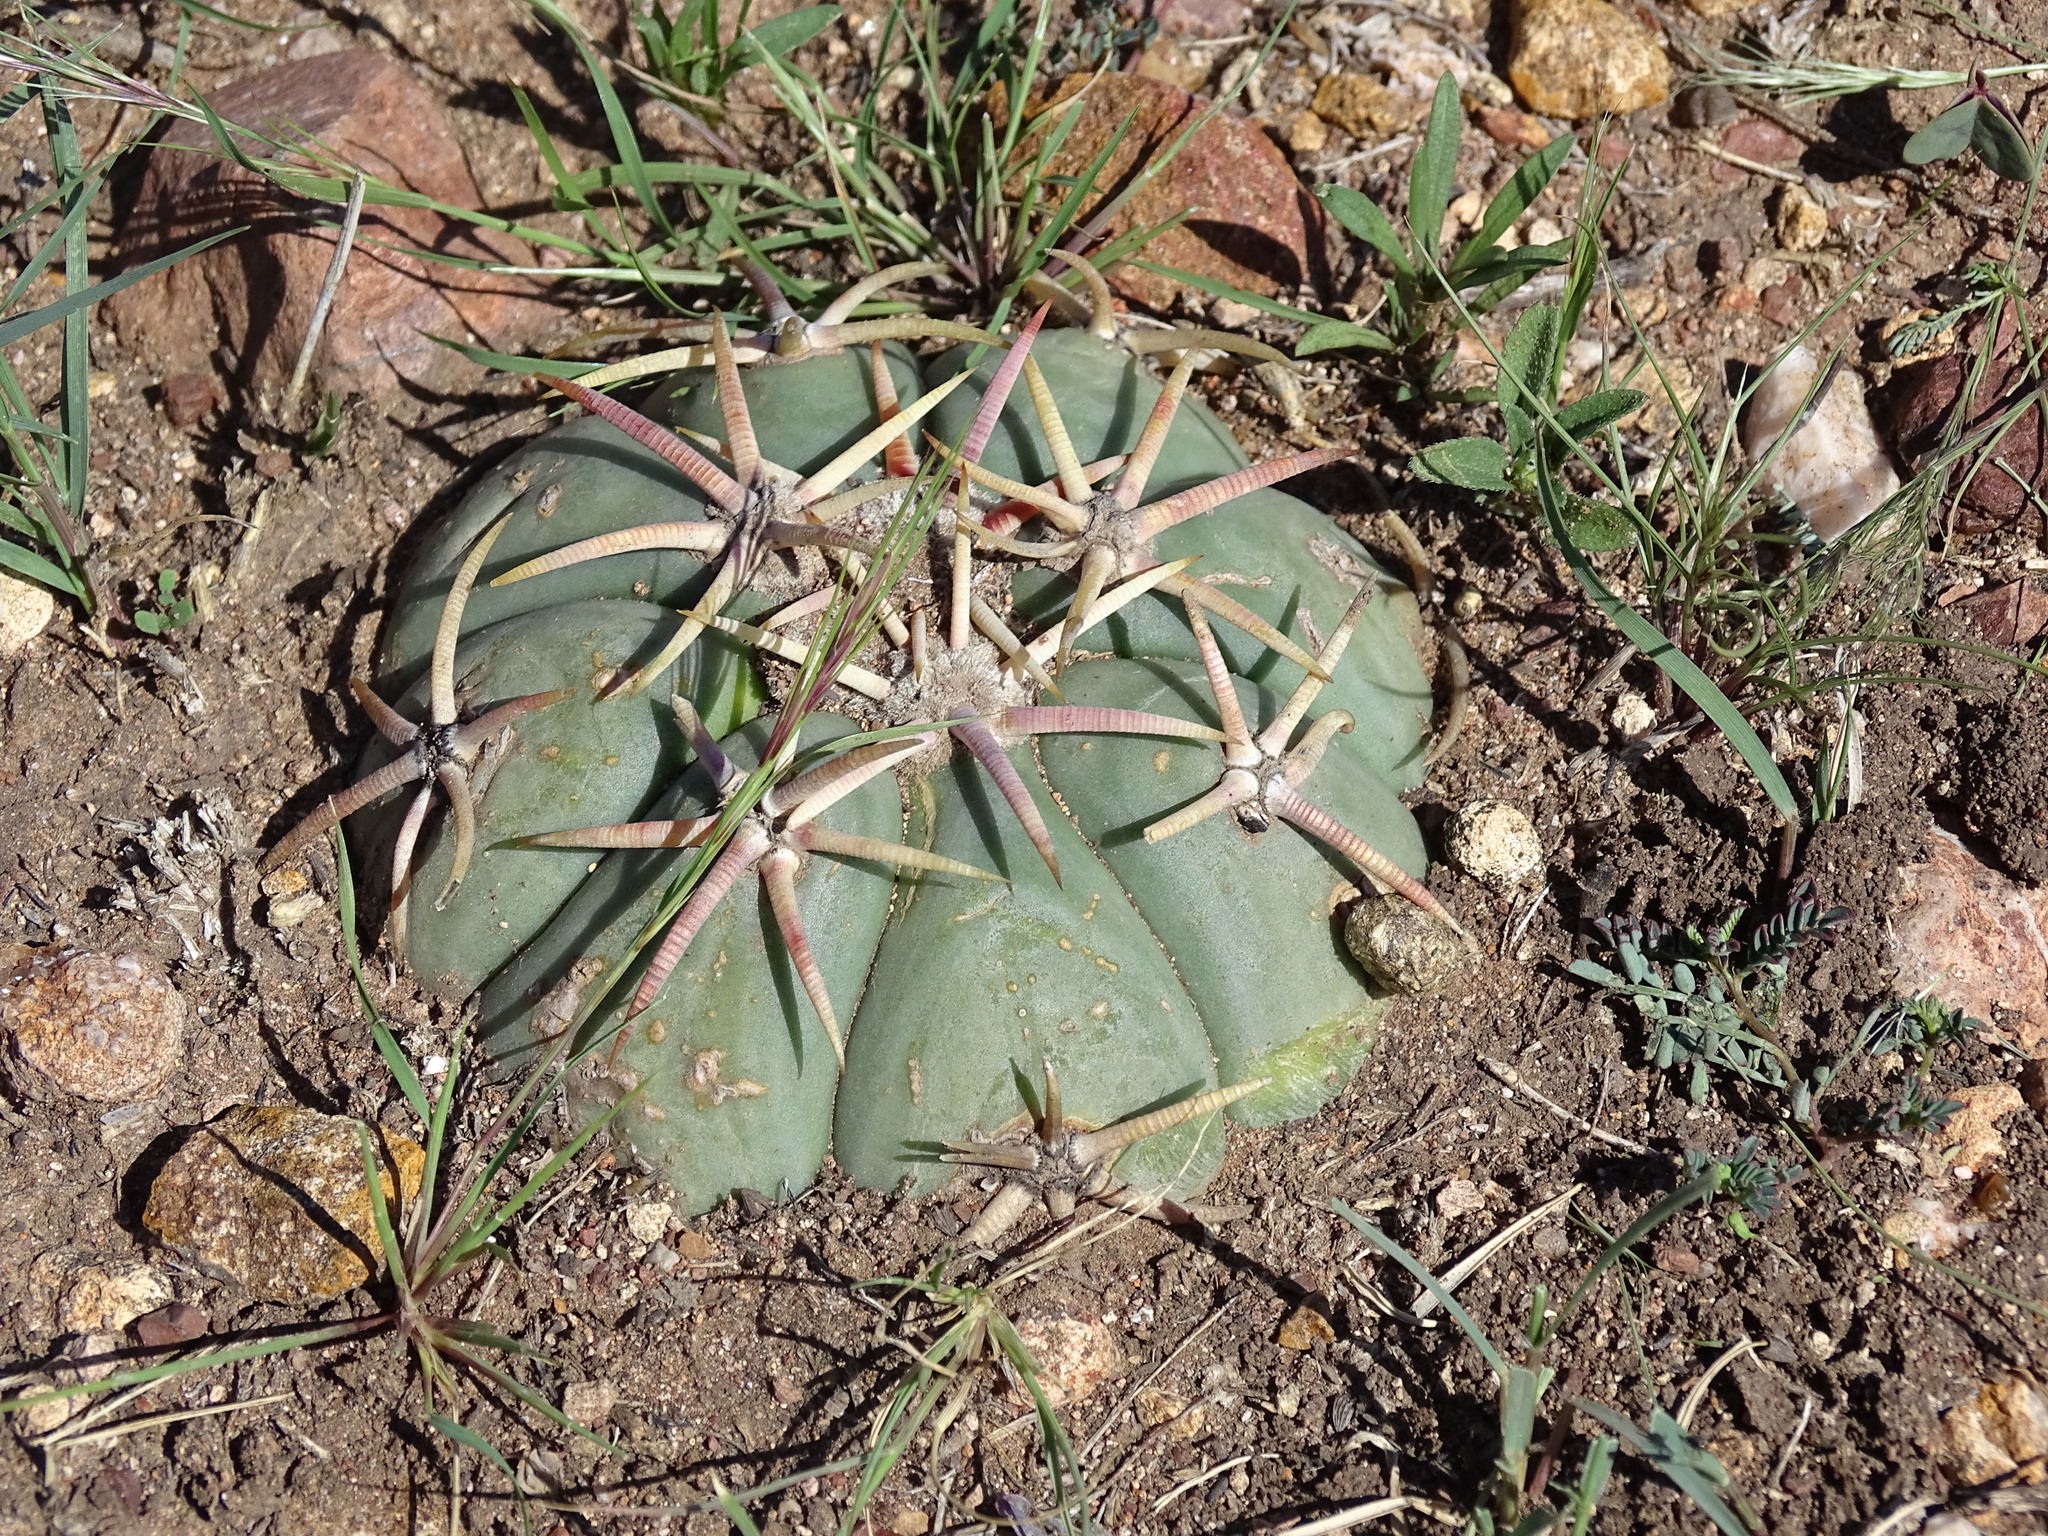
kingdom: Plantae
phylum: Tracheophyta
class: Magnoliopsida
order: Caryophyllales
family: Cactaceae
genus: Echinocactus
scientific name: Echinocactus horizonthalonius
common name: Devilshead
